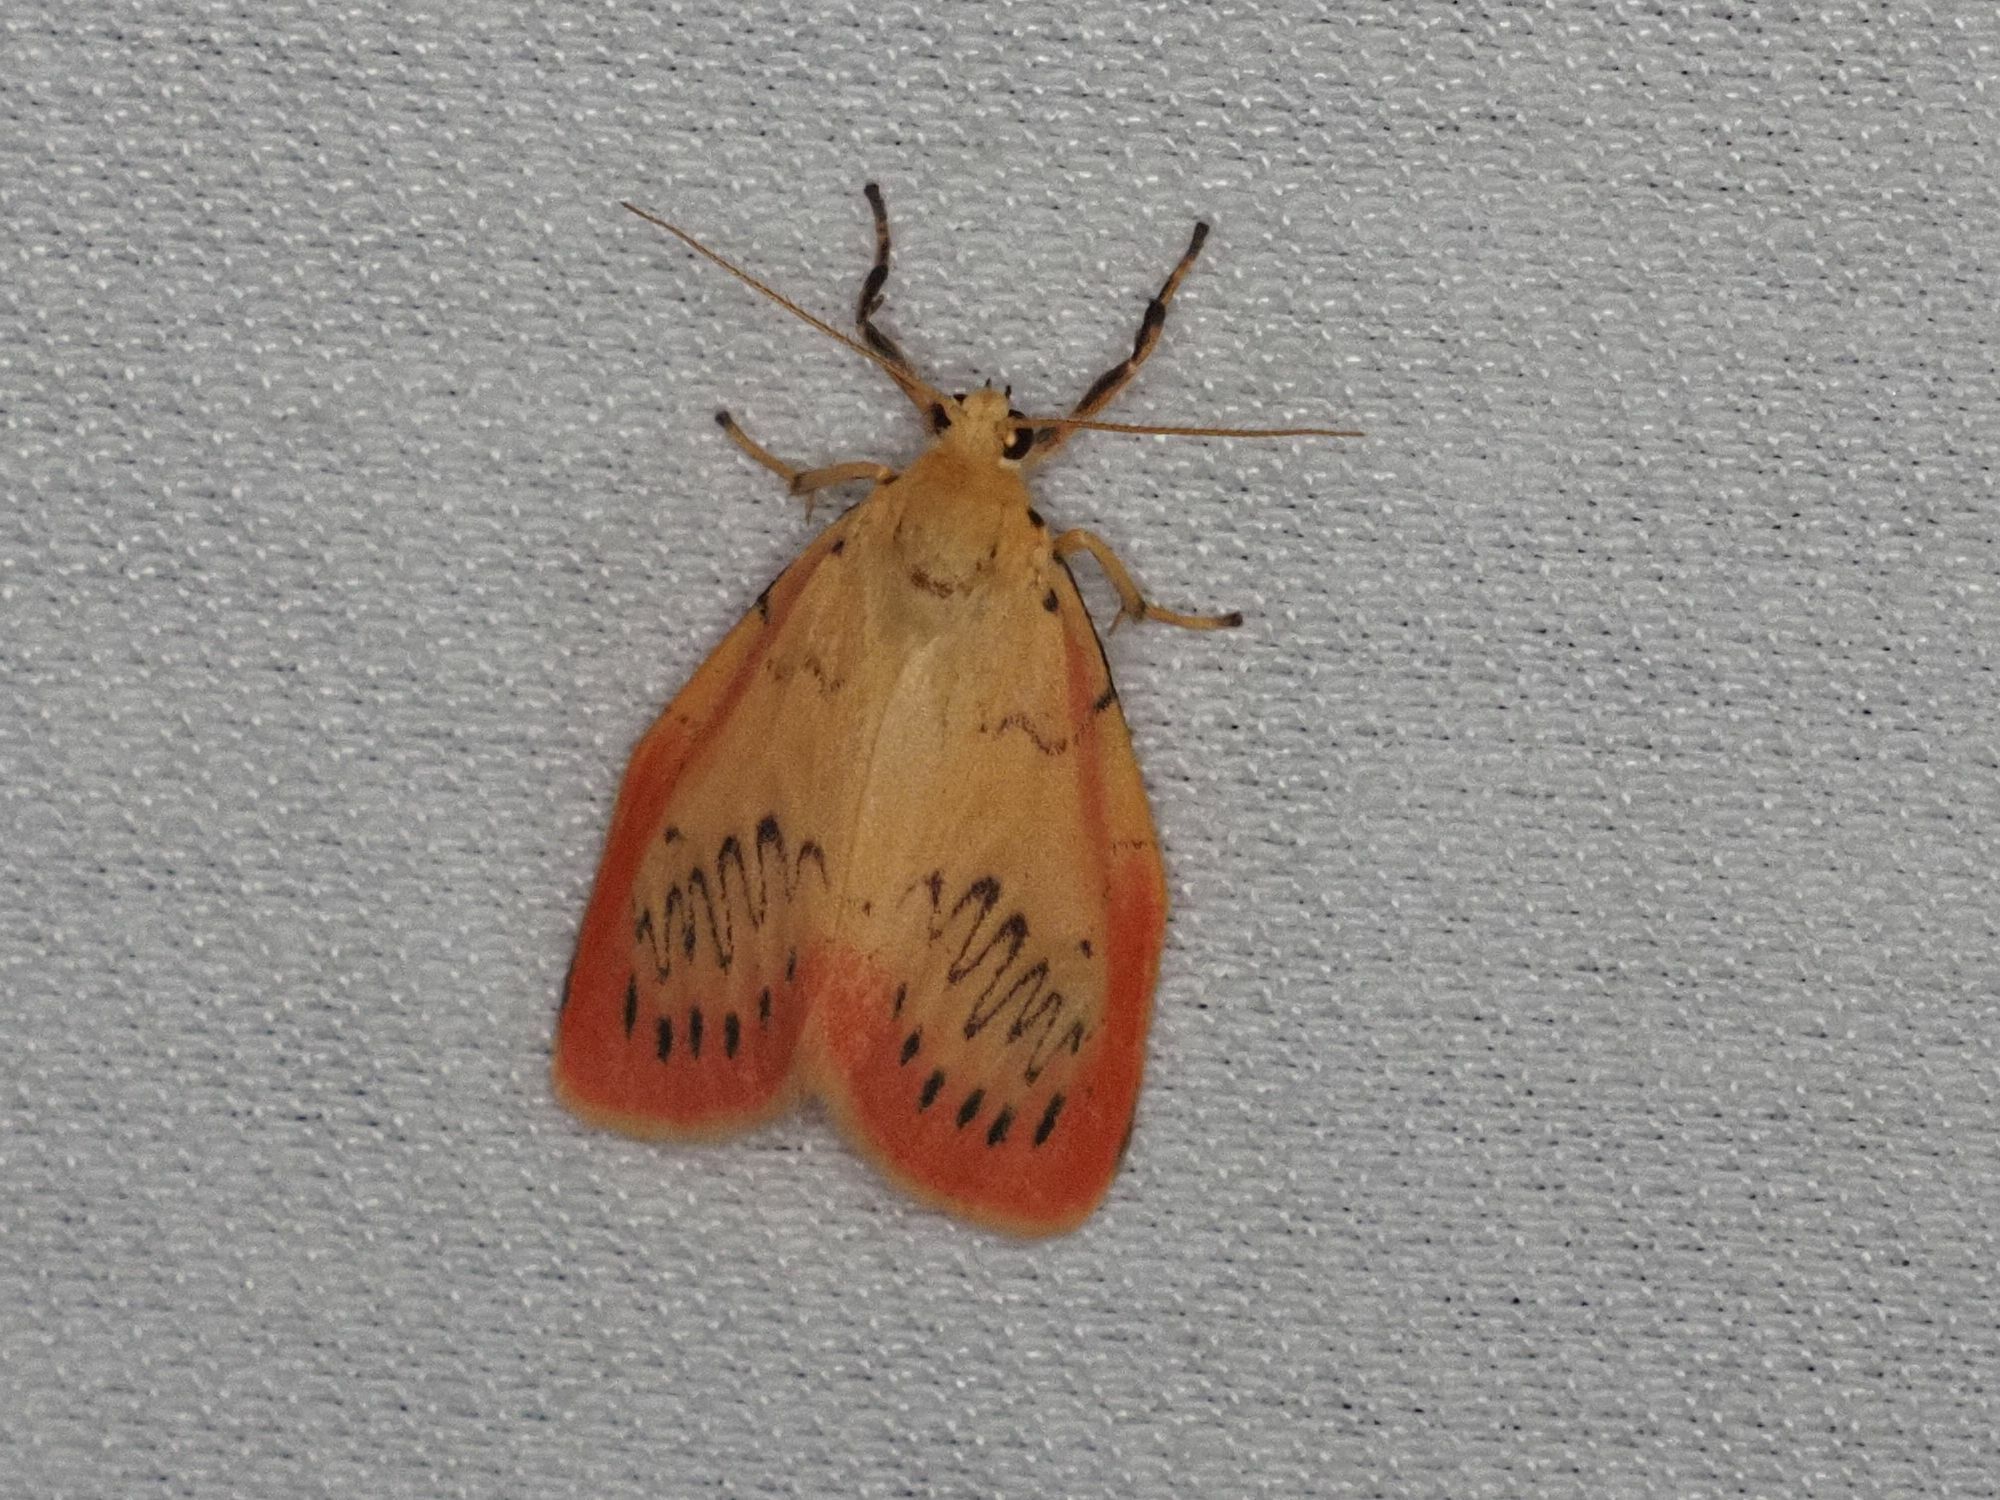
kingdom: Animalia
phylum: Arthropoda
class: Insecta
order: Lepidoptera
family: Erebidae
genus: Miltochrista
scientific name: Miltochrista miniata
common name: Rosy footman
